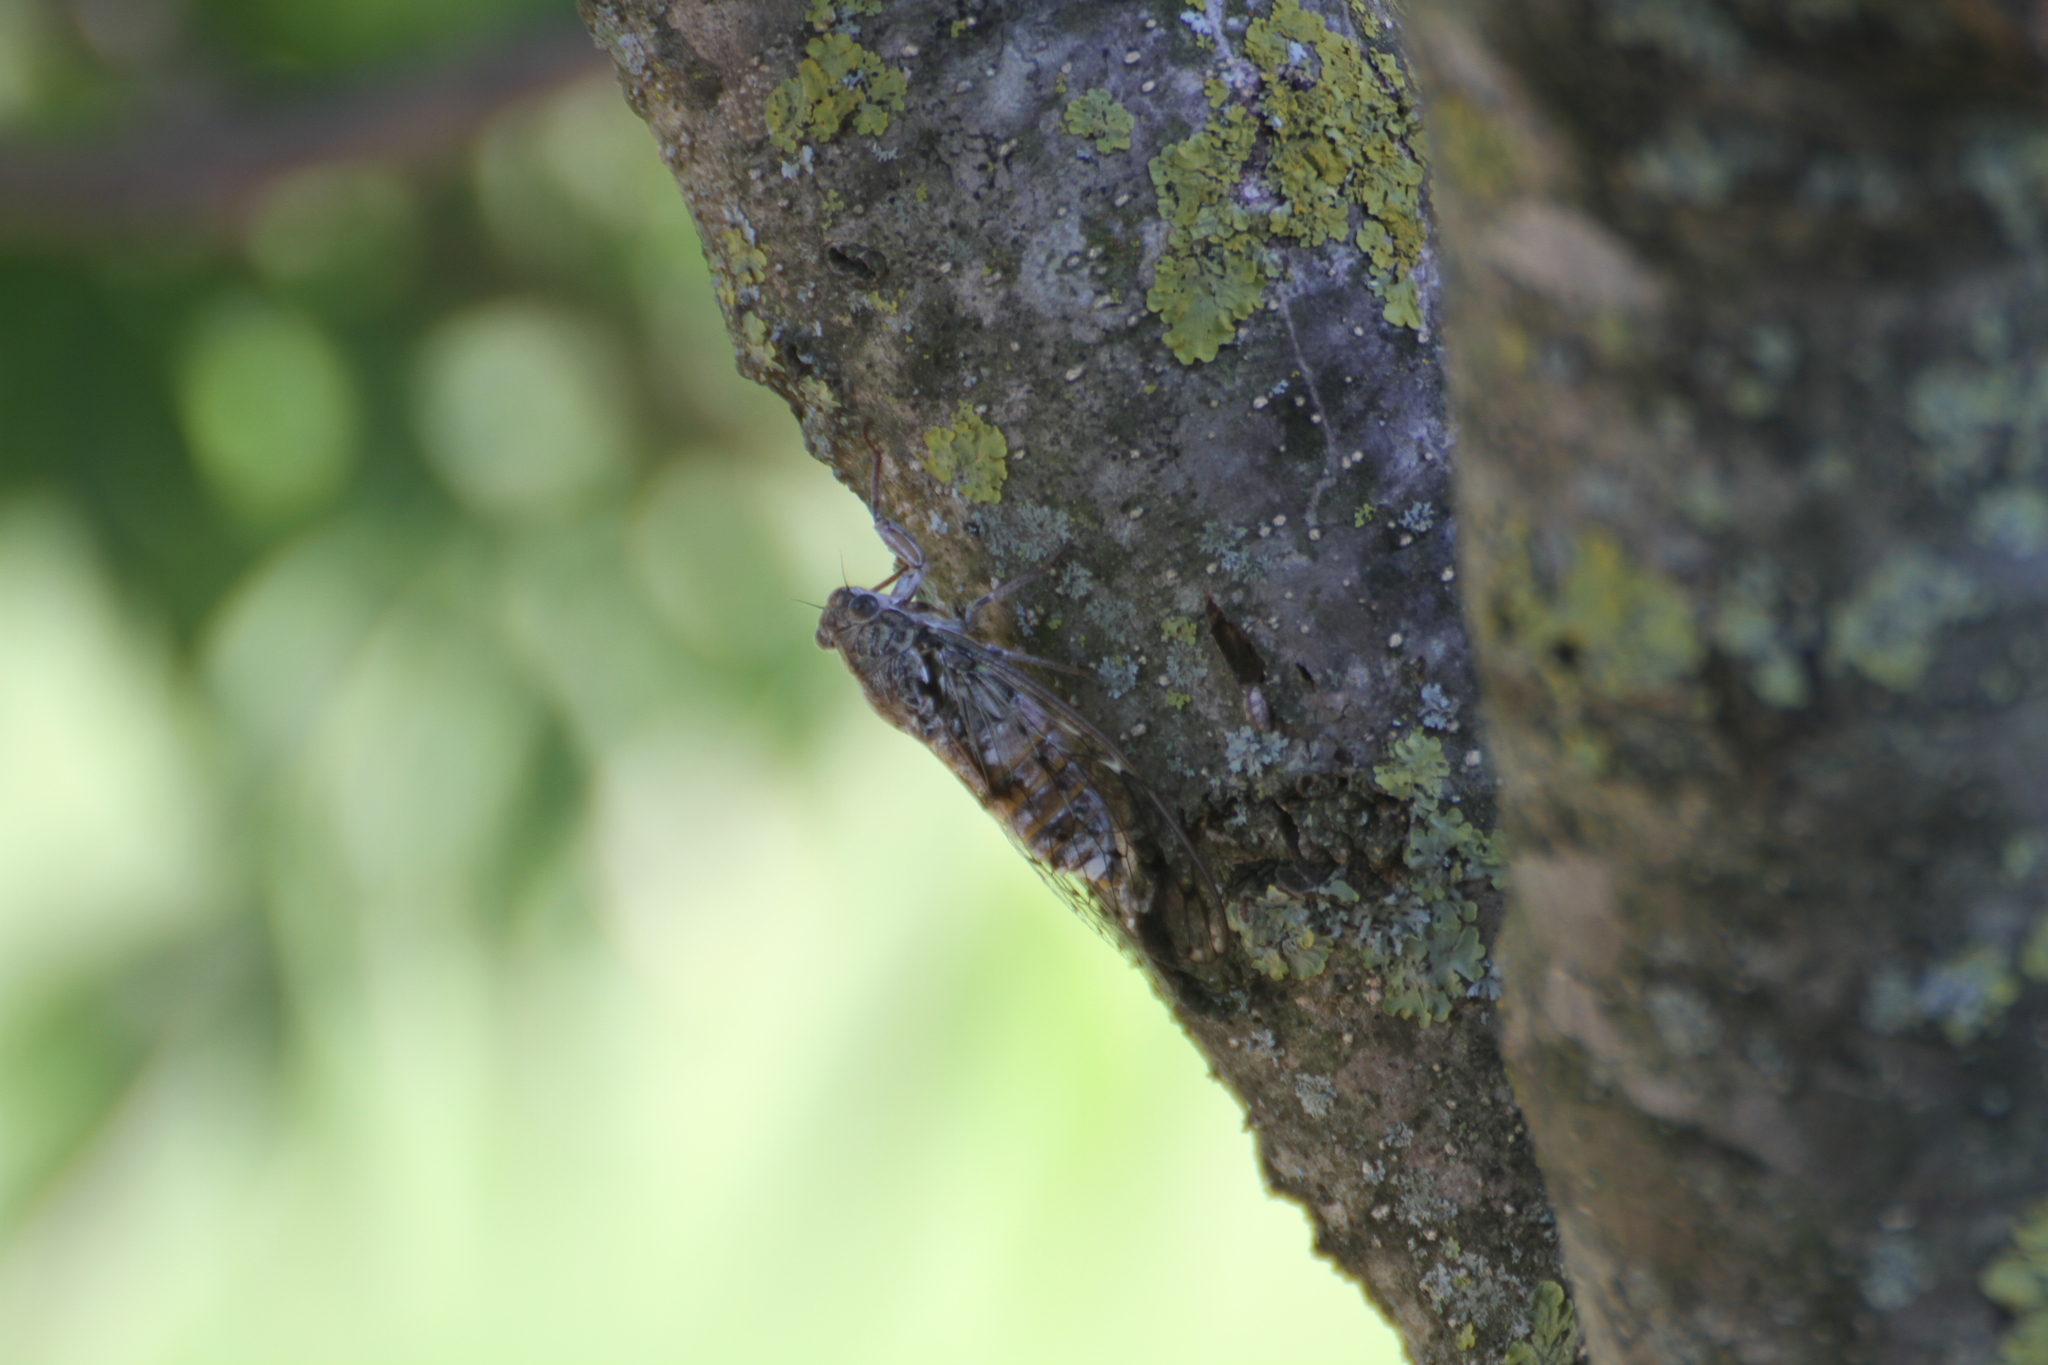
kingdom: Animalia
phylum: Arthropoda
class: Insecta
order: Hemiptera
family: Cicadidae
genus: Cicada
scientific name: Cicada orni
